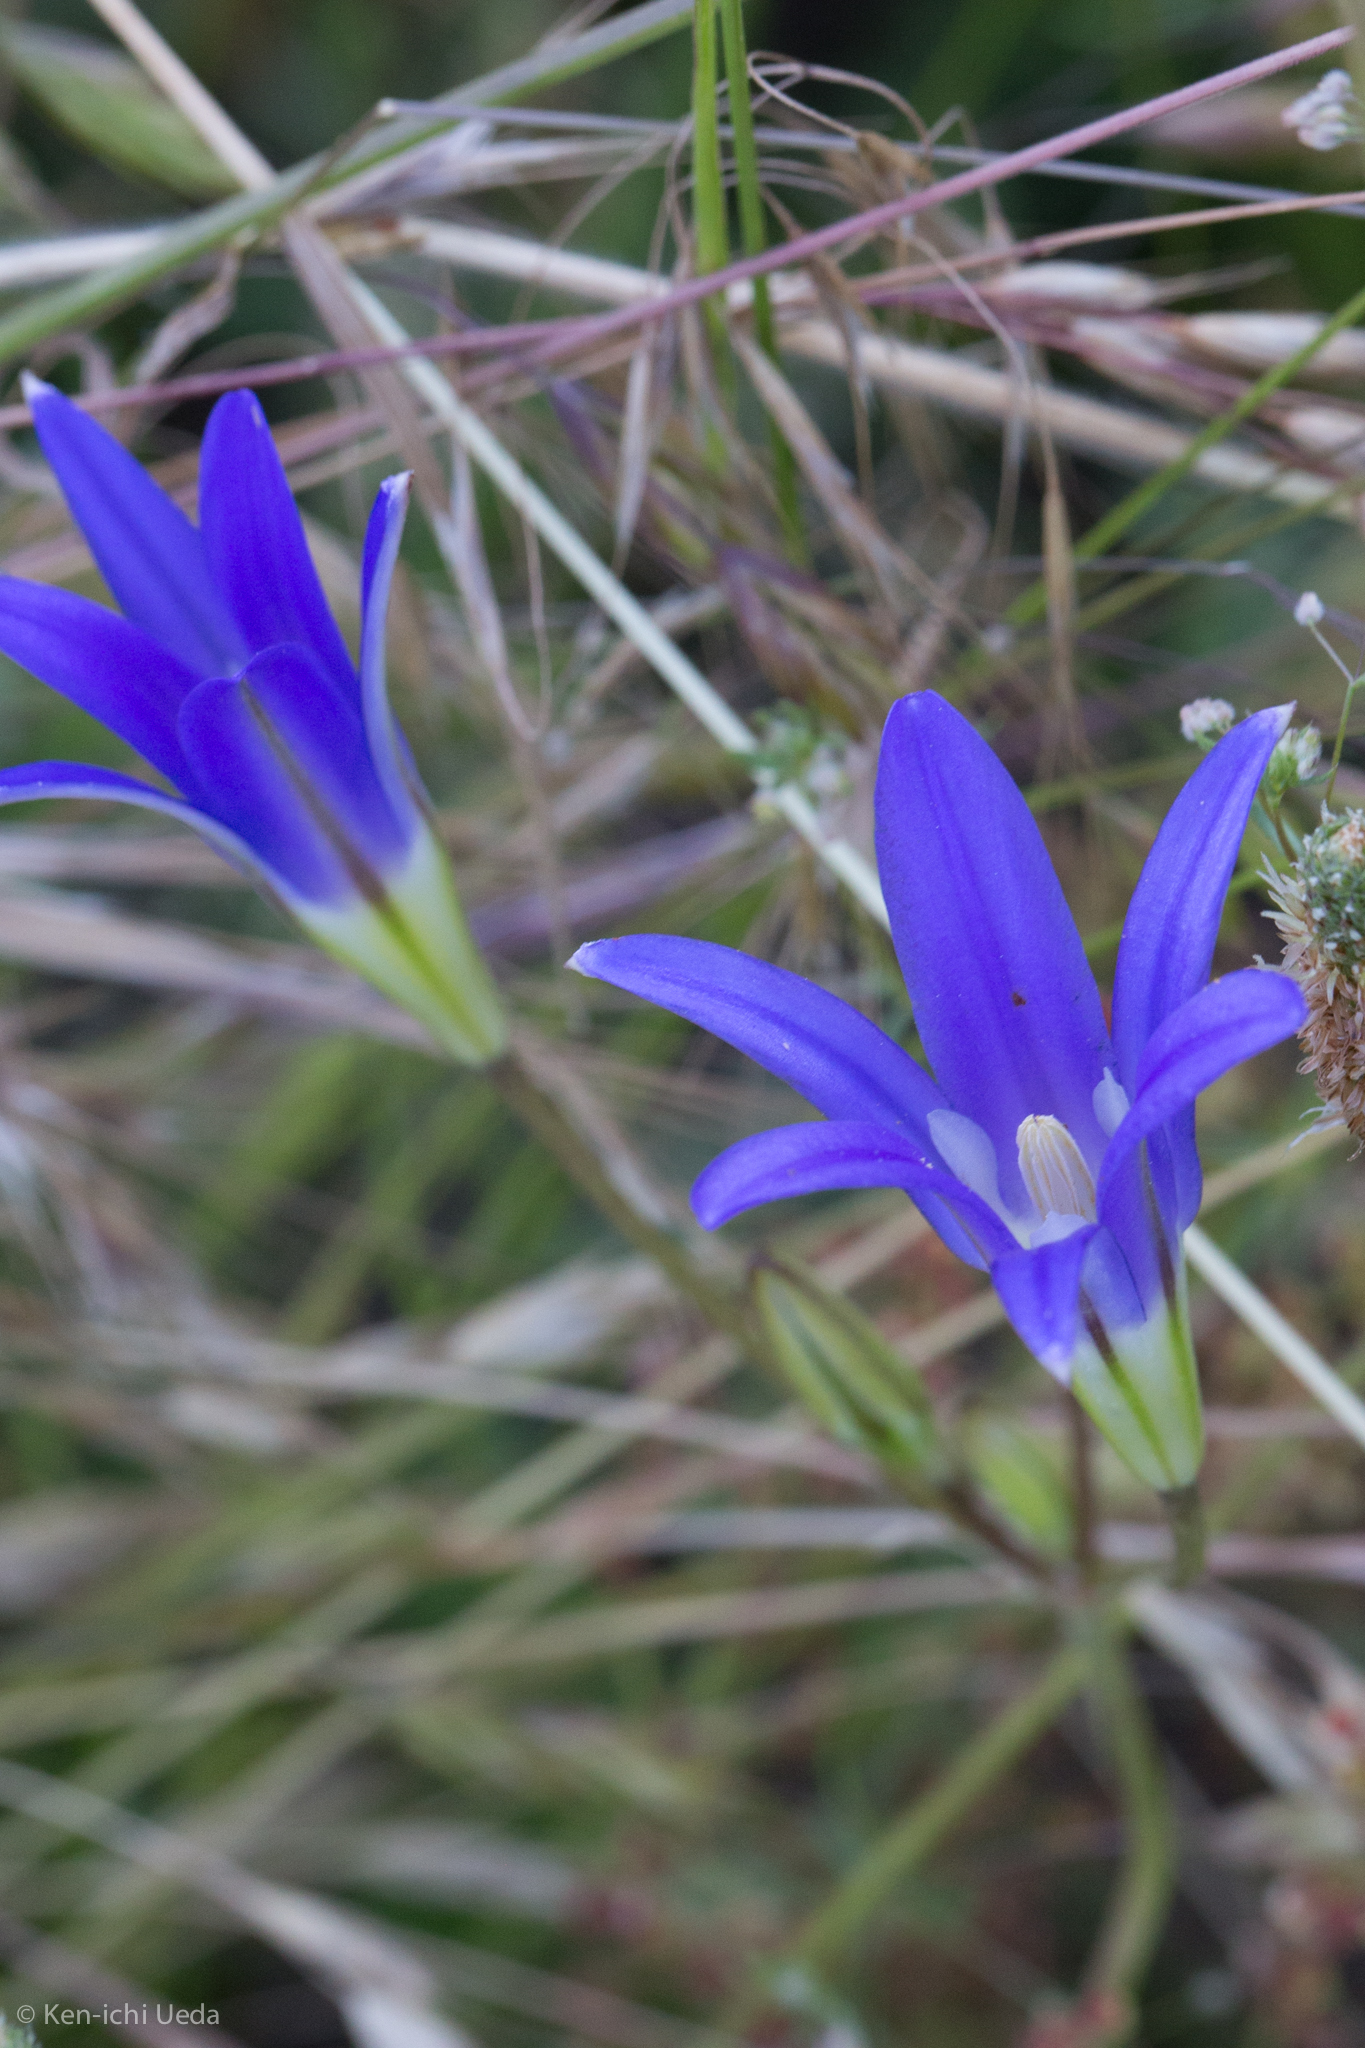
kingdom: Plantae
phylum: Tracheophyta
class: Liliopsida
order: Asparagales
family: Asparagaceae
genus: Brodiaea
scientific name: Brodiaea elegans
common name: Elegant cluster-lily
